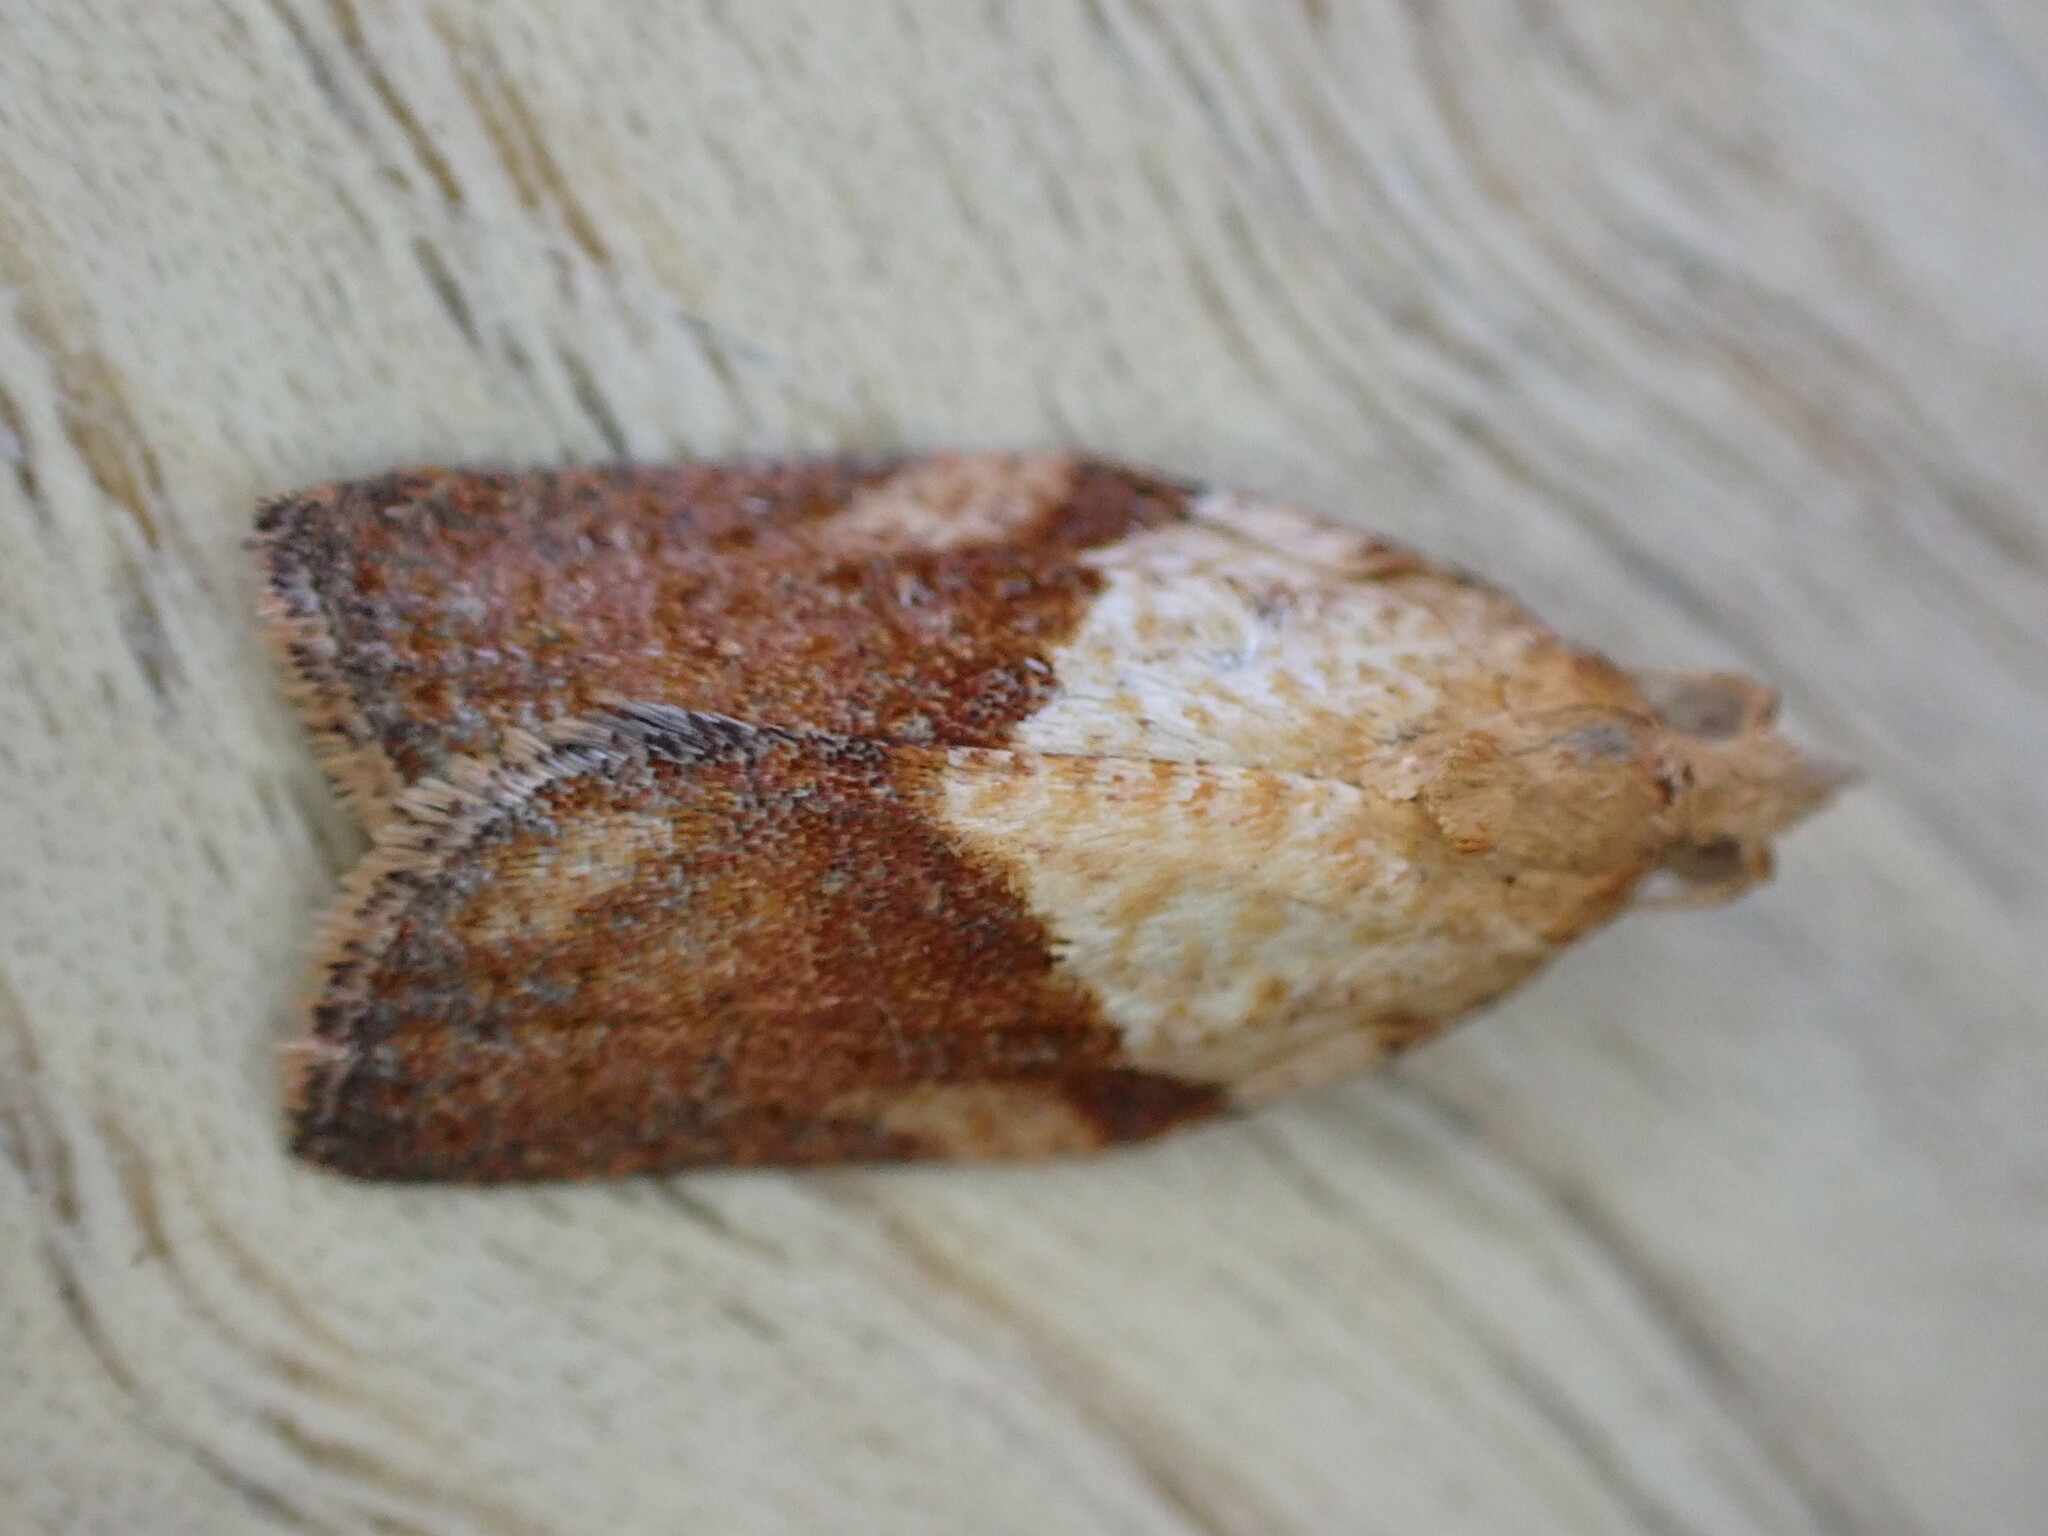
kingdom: Animalia
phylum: Arthropoda
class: Insecta
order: Lepidoptera
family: Tortricidae
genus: Epiphyas
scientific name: Epiphyas postvittana
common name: Light brown apple moth
